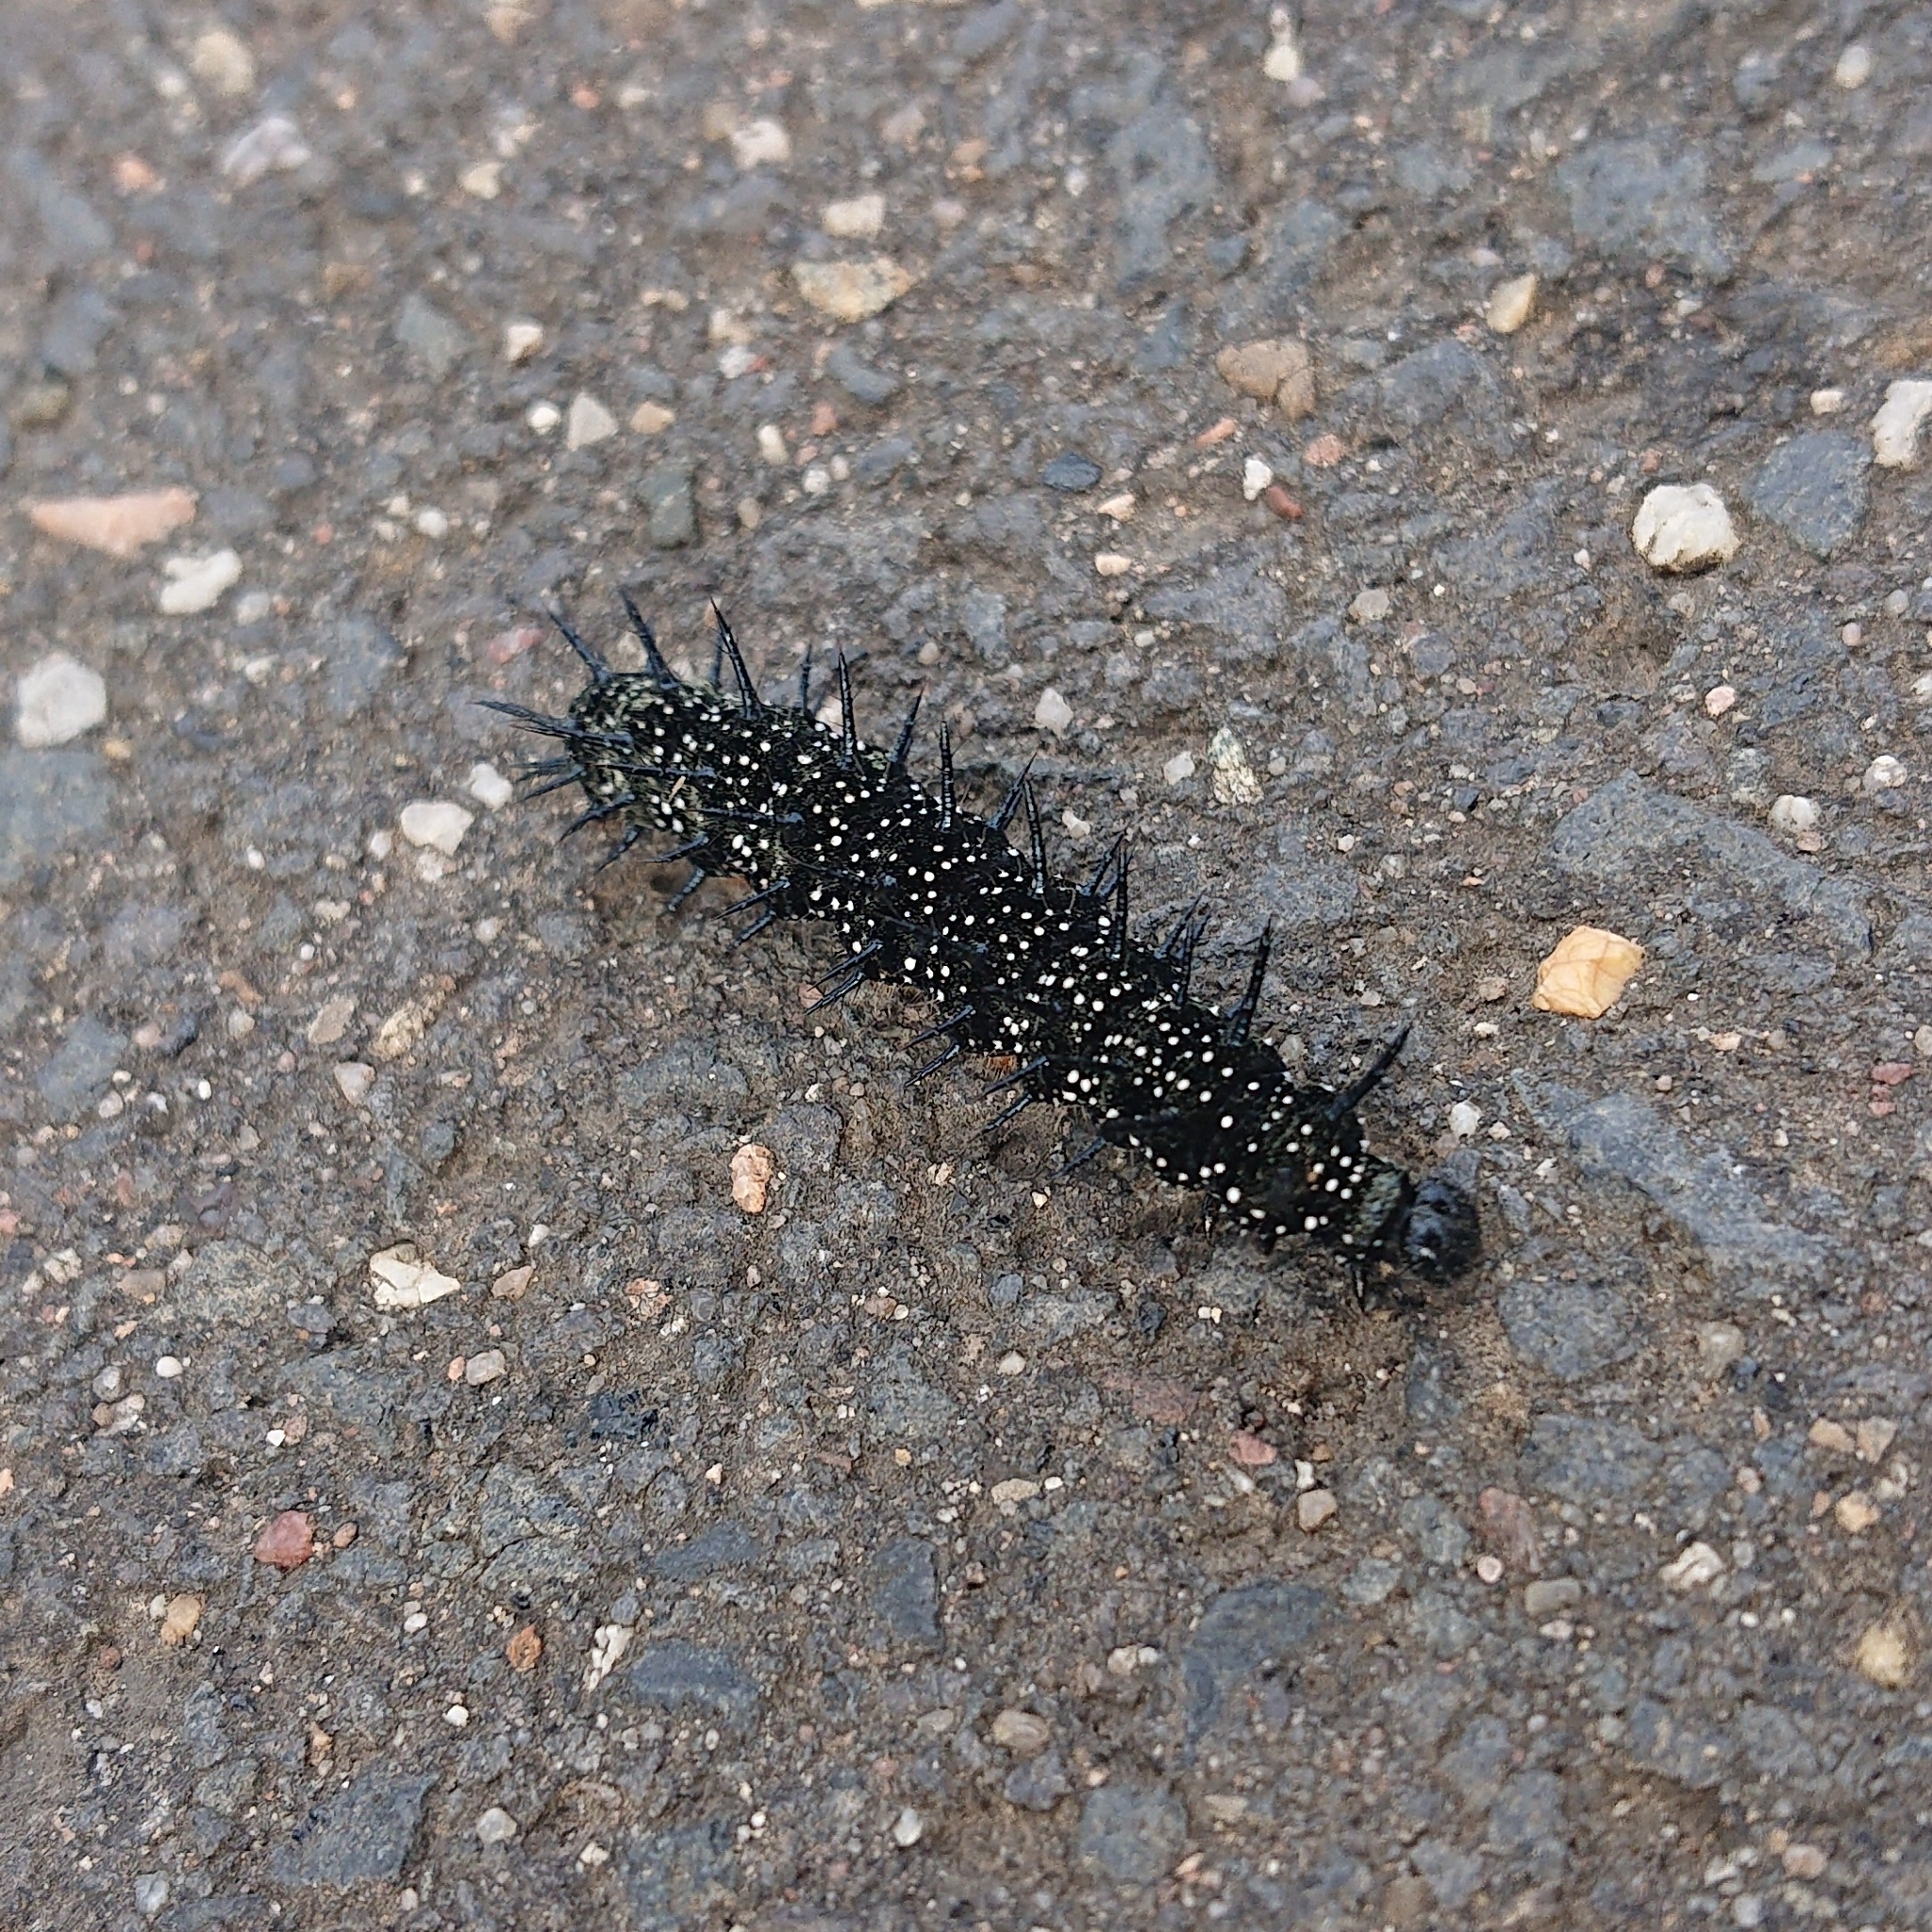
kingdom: Animalia
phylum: Arthropoda
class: Insecta
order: Lepidoptera
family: Nymphalidae
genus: Aglais
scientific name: Aglais io
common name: Peacock
